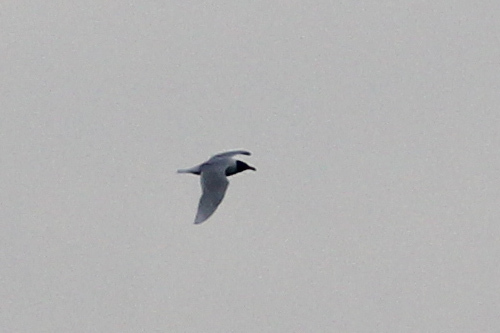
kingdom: Animalia
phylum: Chordata
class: Aves
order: Charadriiformes
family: Laridae
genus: Ichthyaetus
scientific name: Ichthyaetus melanocephalus
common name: Mediterranean gull
